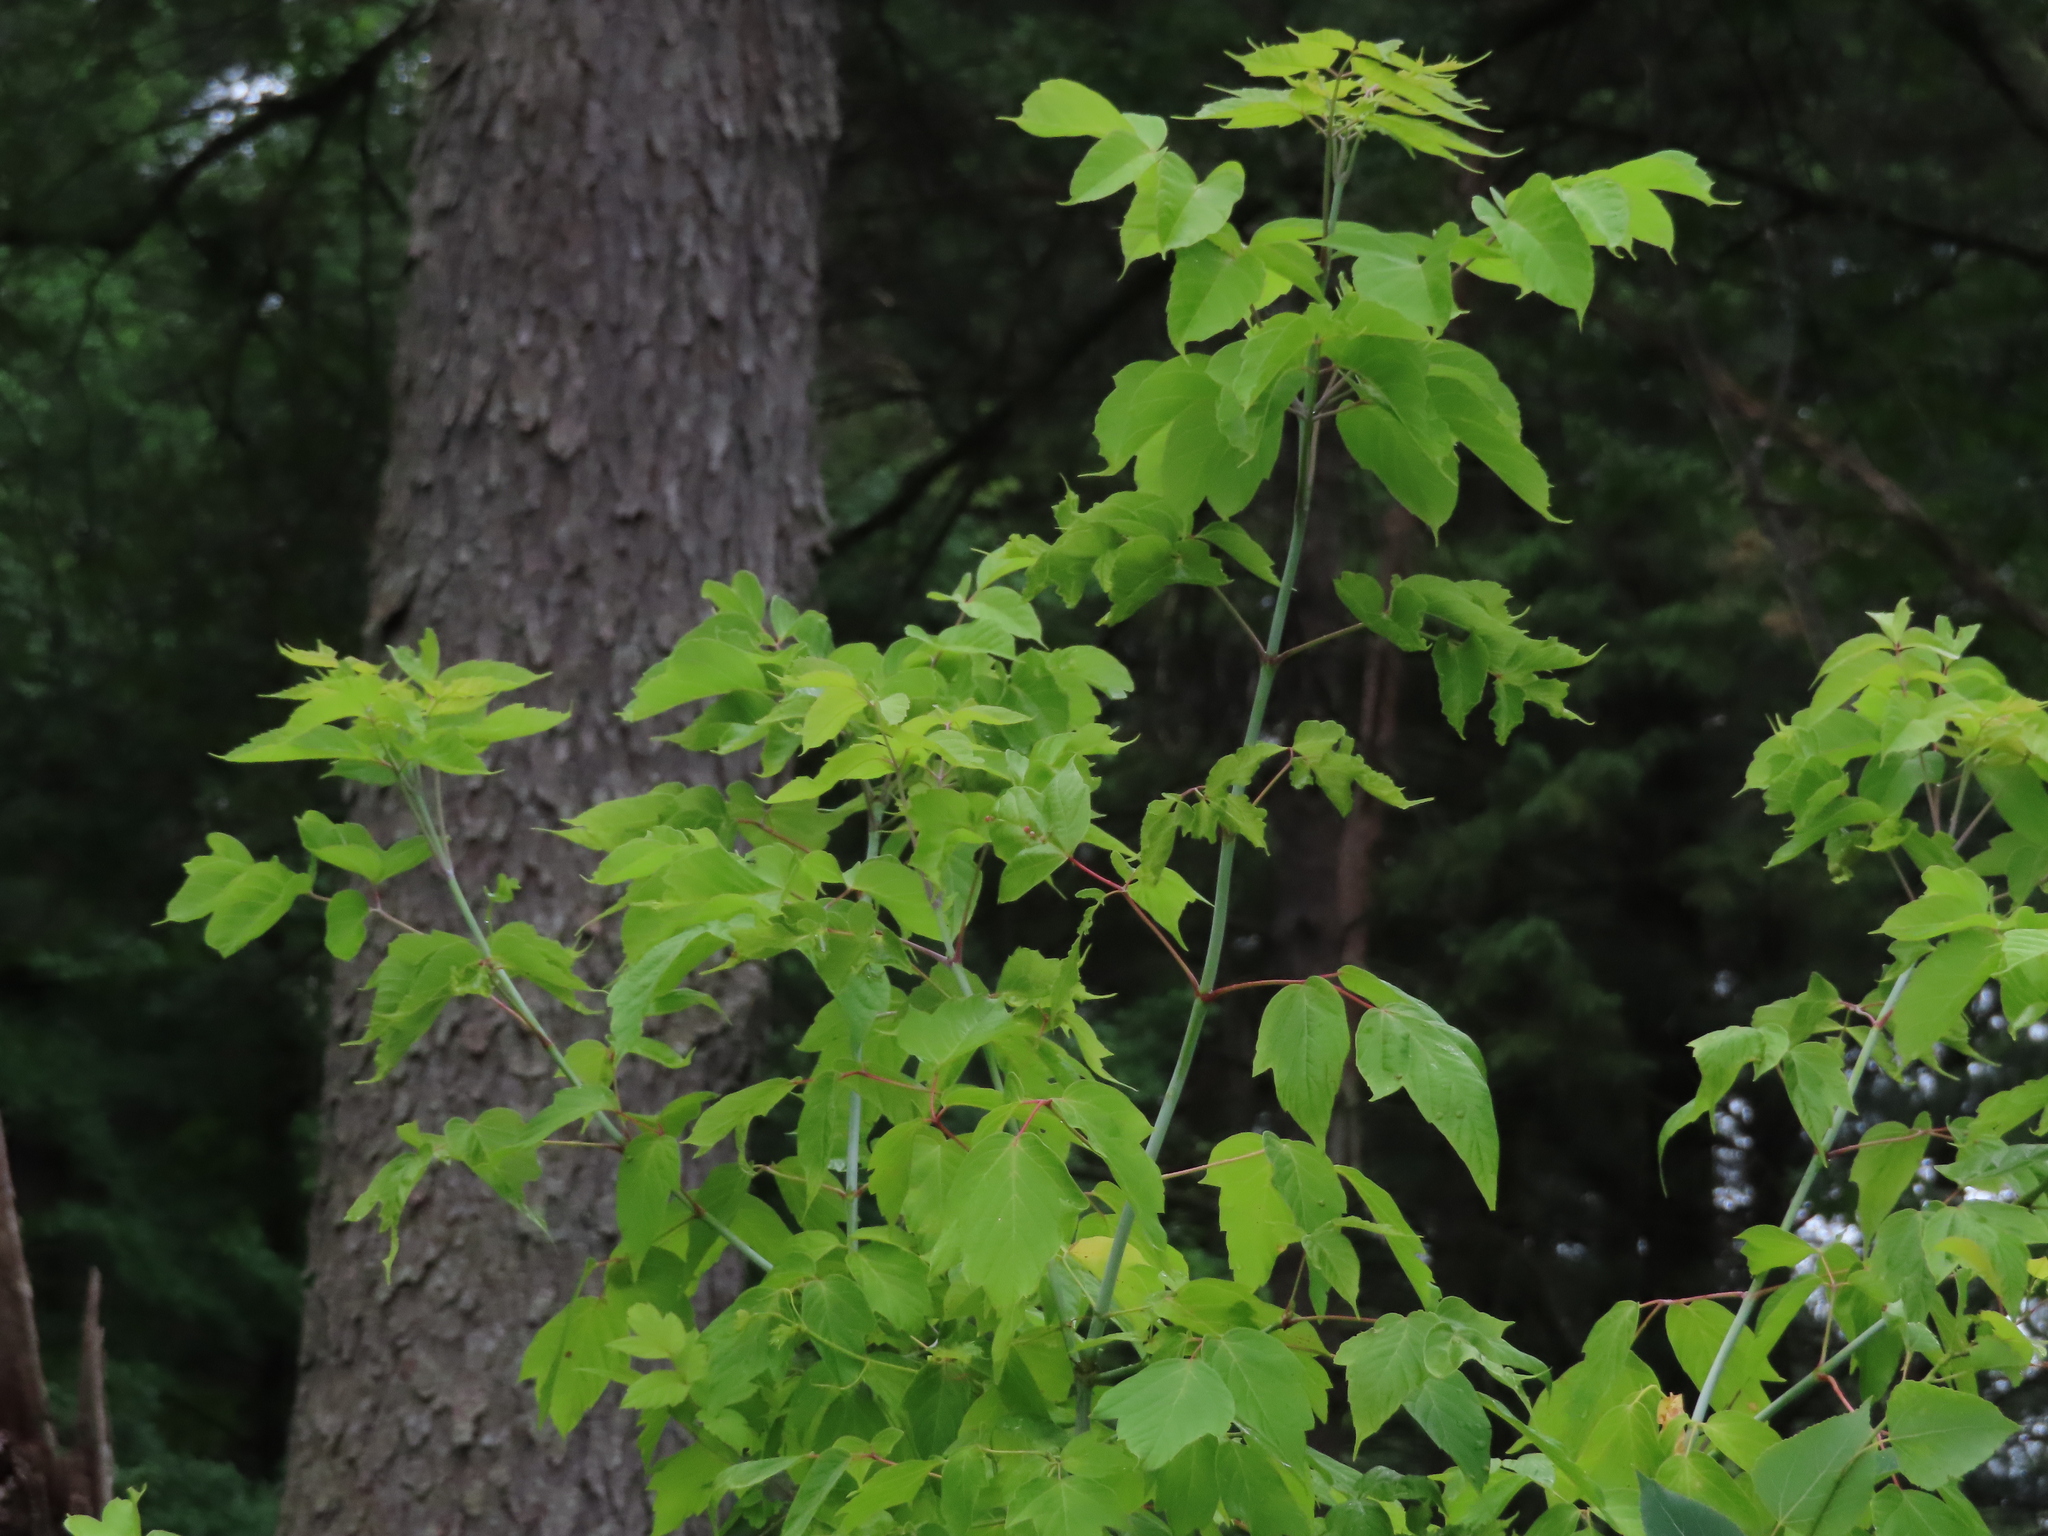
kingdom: Plantae
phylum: Tracheophyta
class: Magnoliopsida
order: Sapindales
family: Sapindaceae
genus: Acer
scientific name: Acer negundo
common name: Ashleaf maple
